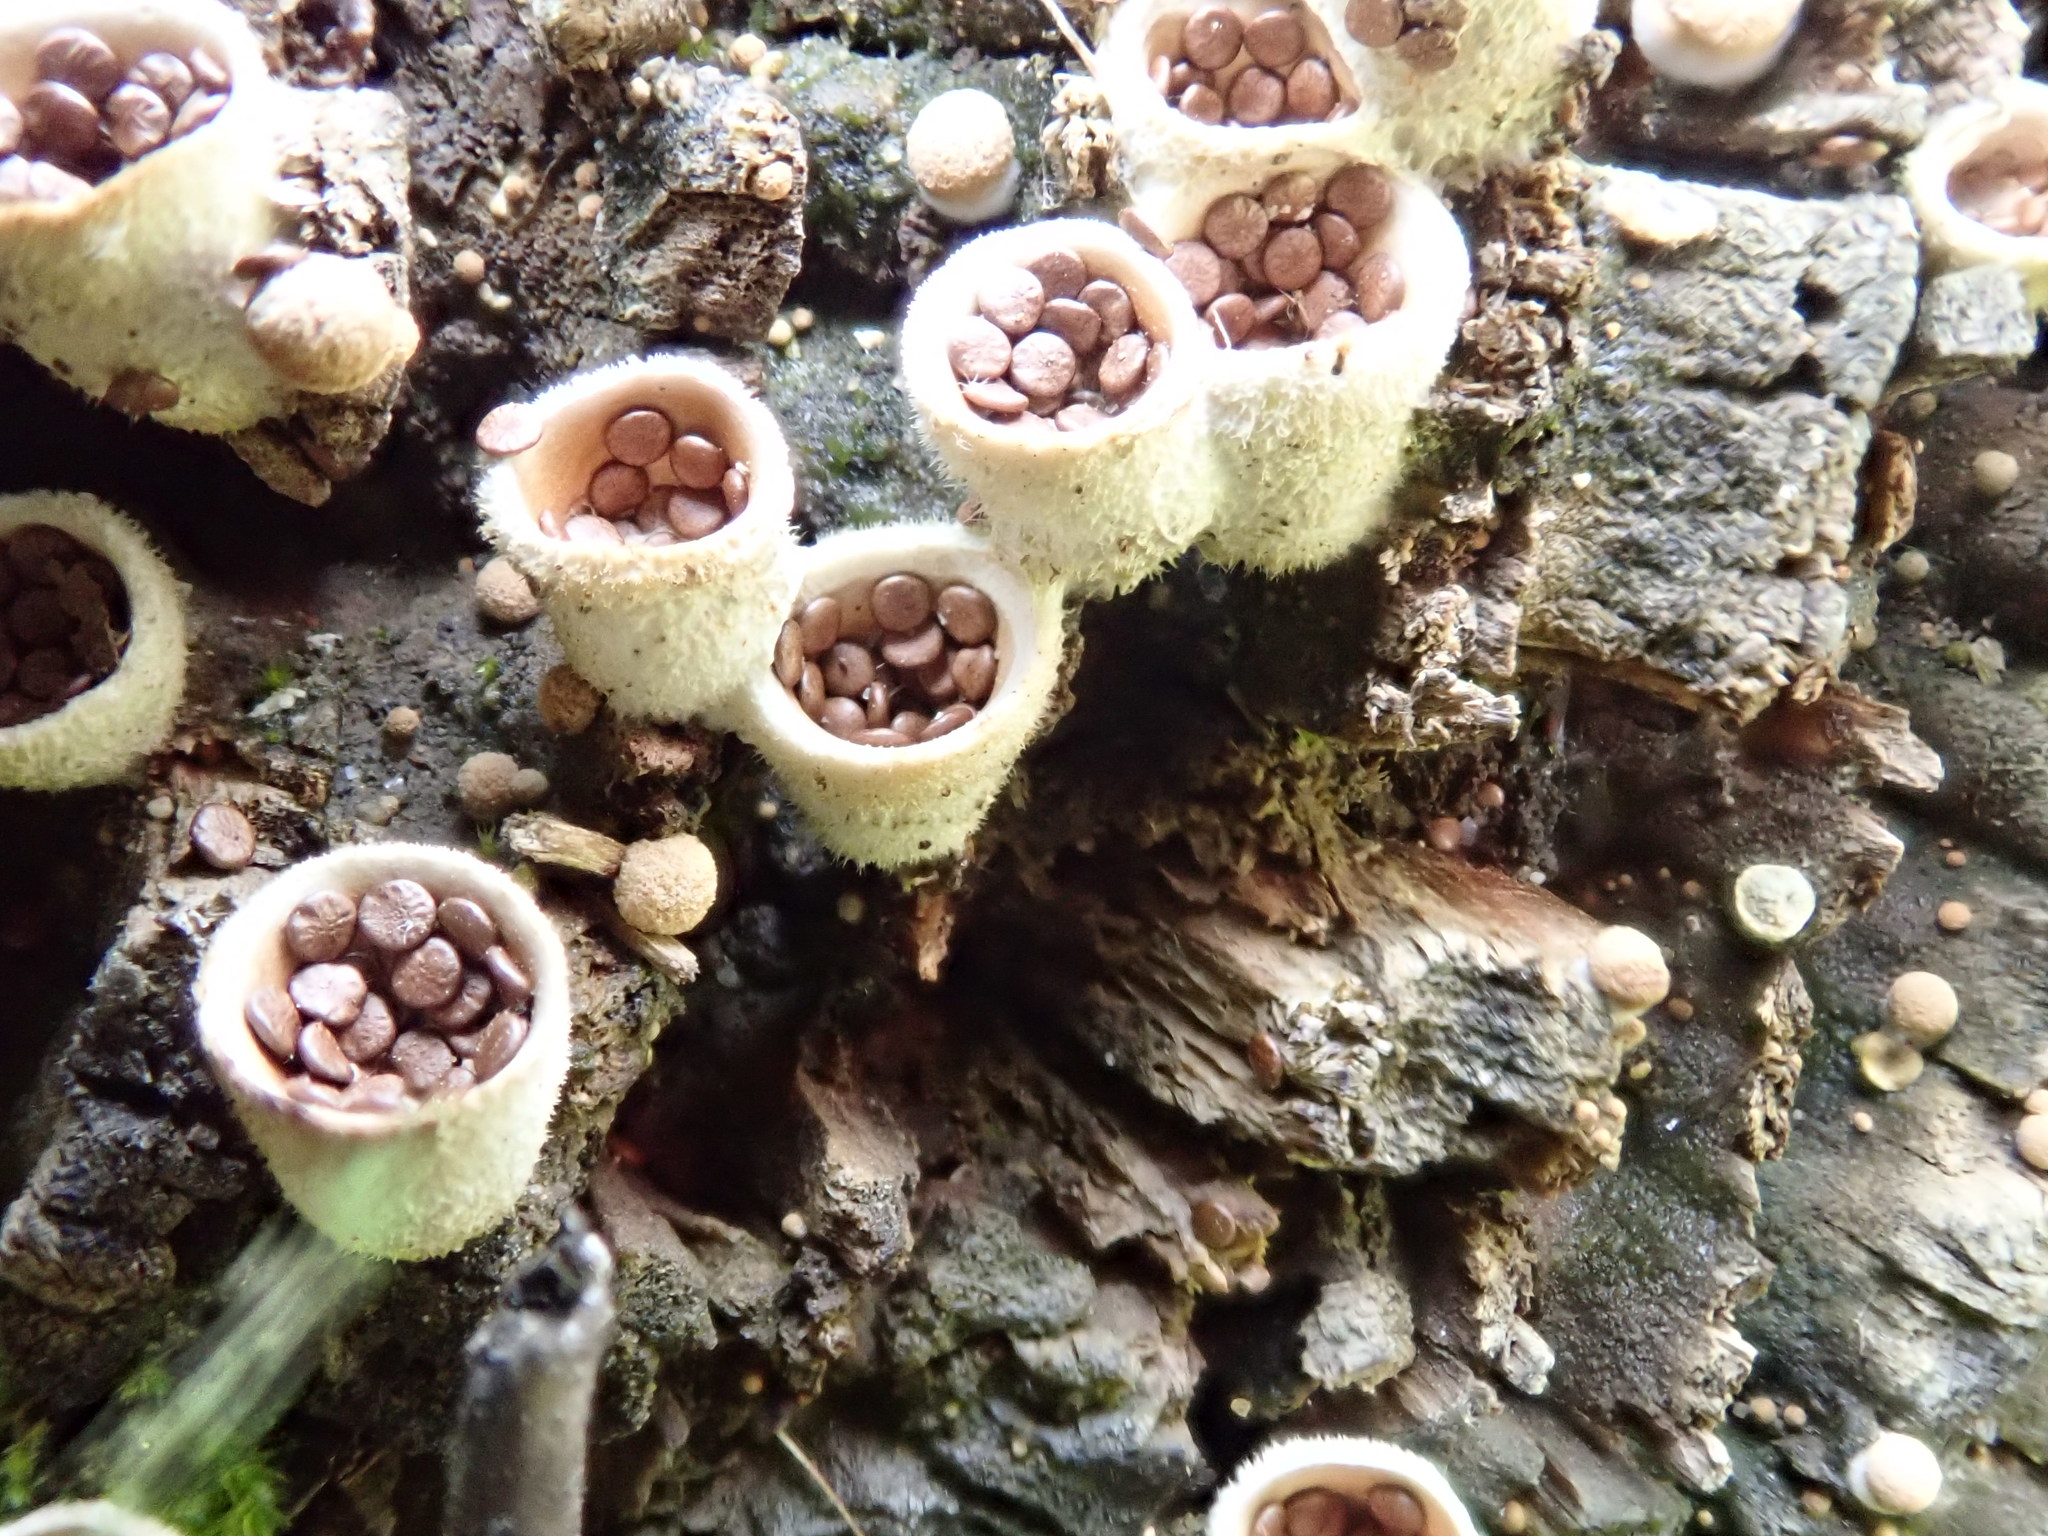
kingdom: Fungi
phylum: Basidiomycota
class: Agaricomycetes
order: Agaricales
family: Agaricaceae
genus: Nidula
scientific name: Nidula niveotomentosa
